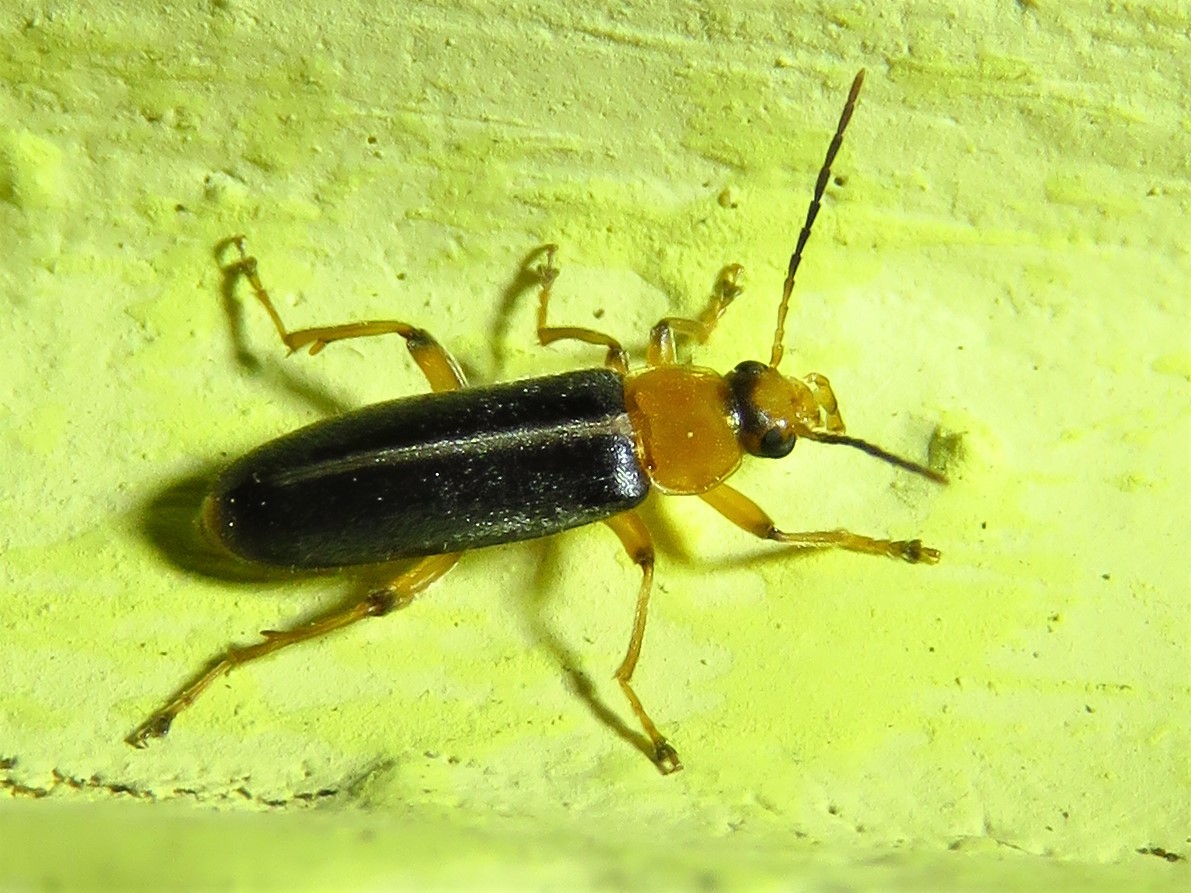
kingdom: Animalia
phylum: Arthropoda
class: Insecta
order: Coleoptera
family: Melandryidae
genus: Osphya
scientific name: Osphya varians
